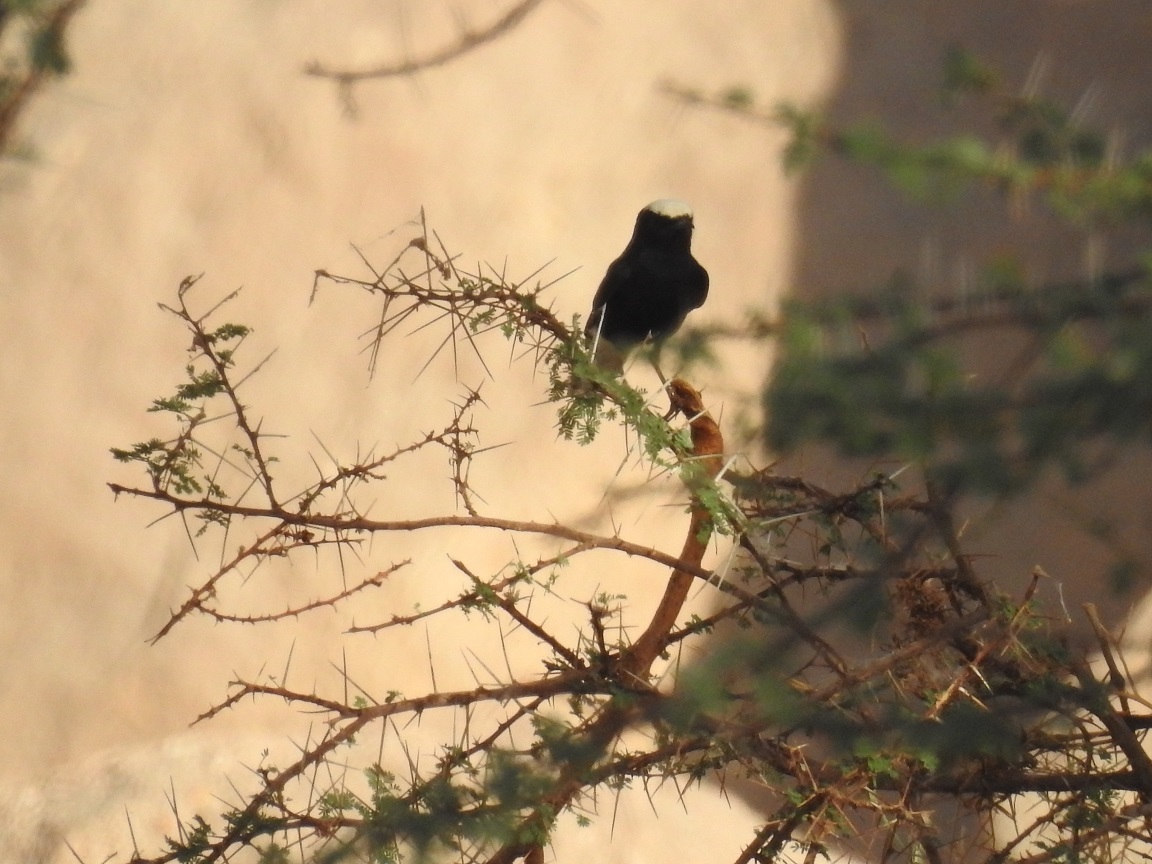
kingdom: Animalia
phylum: Chordata
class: Aves
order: Passeriformes
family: Muscicapidae
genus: Oenanthe
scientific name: Oenanthe leucopyga
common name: White-crowned wheatear
